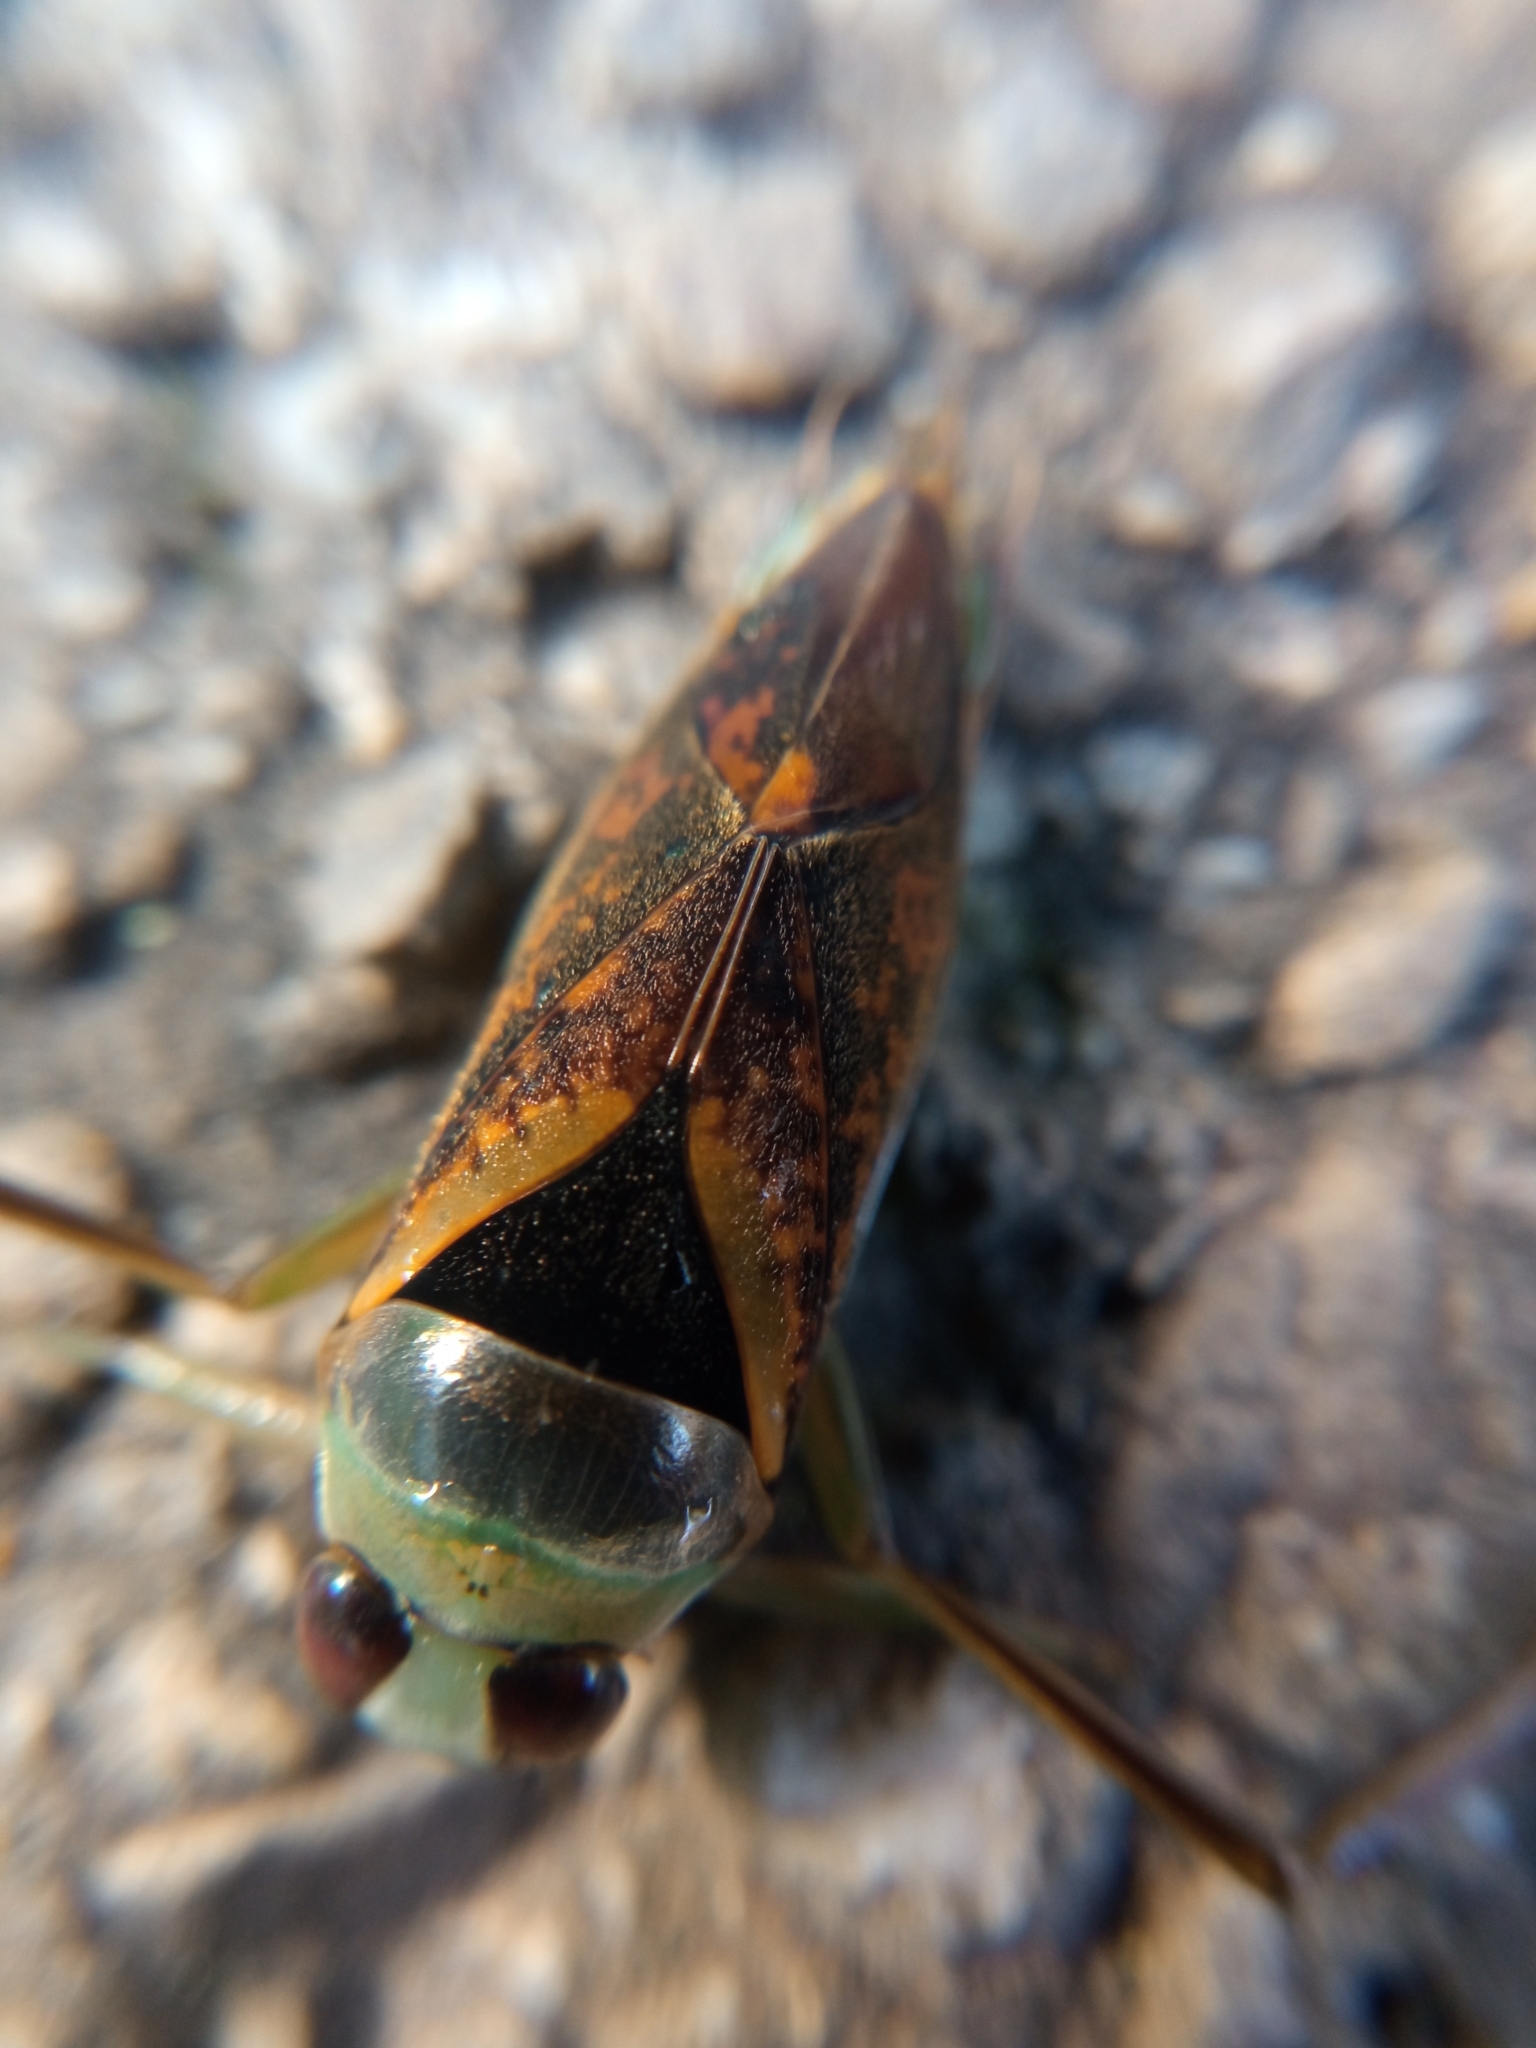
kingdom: Animalia
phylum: Arthropoda
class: Insecta
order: Hemiptera
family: Notonectidae
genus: Notonecta
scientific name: Notonecta maculata
